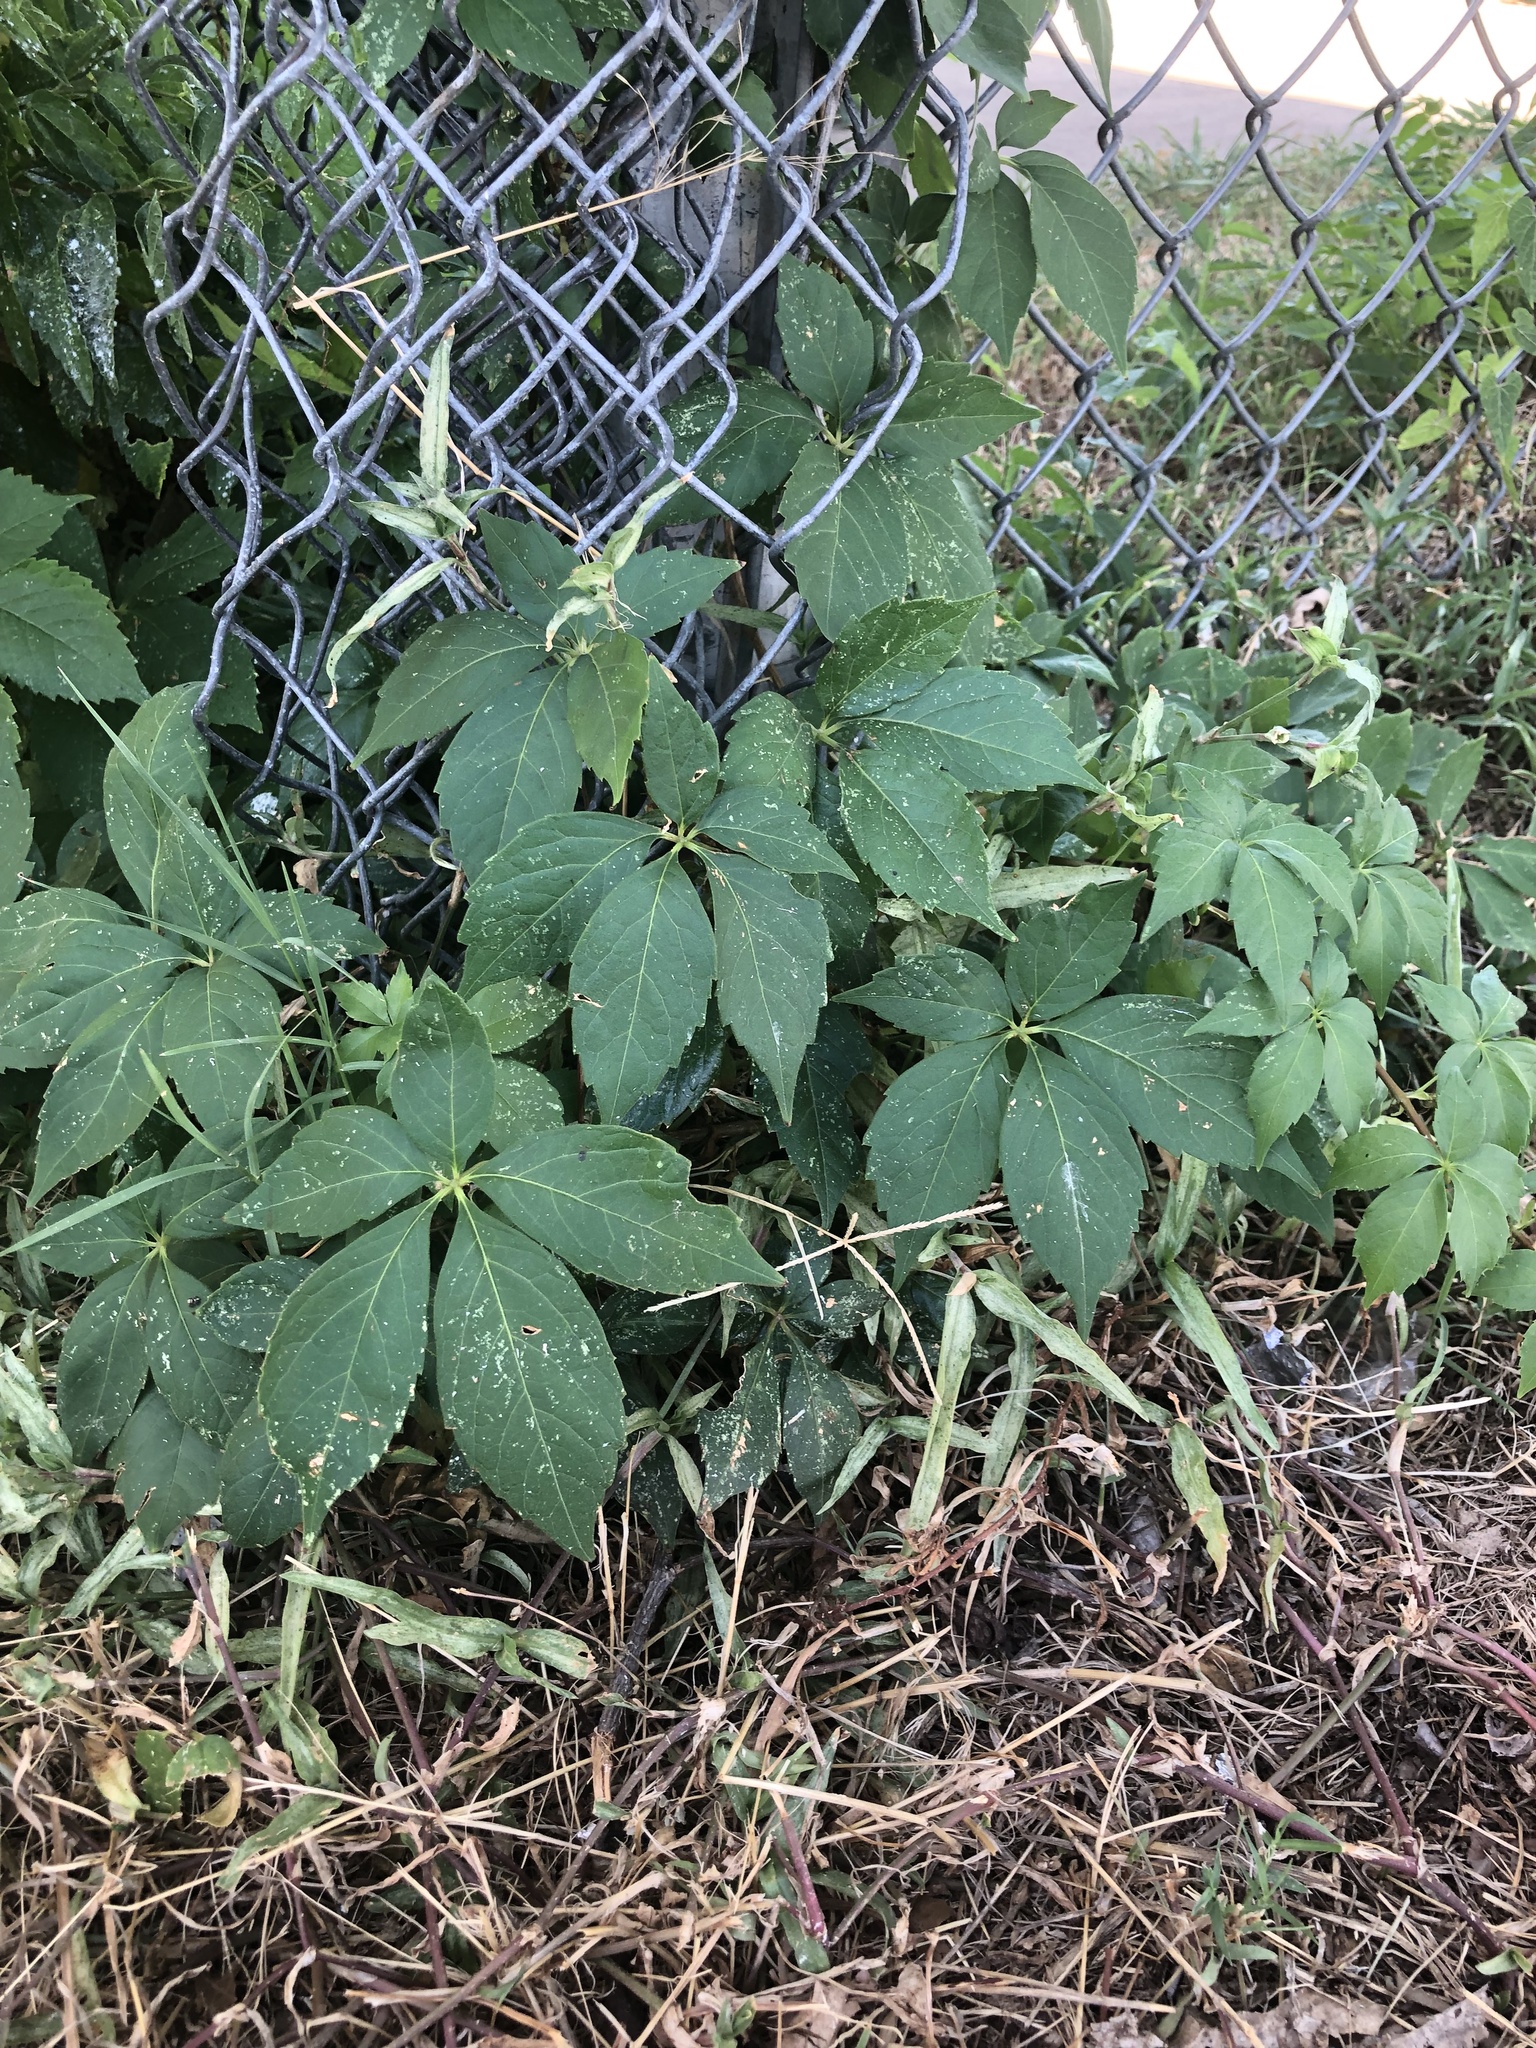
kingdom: Plantae
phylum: Tracheophyta
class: Magnoliopsida
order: Vitales
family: Vitaceae
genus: Parthenocissus
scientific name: Parthenocissus quinquefolia
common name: Virginia-creeper
